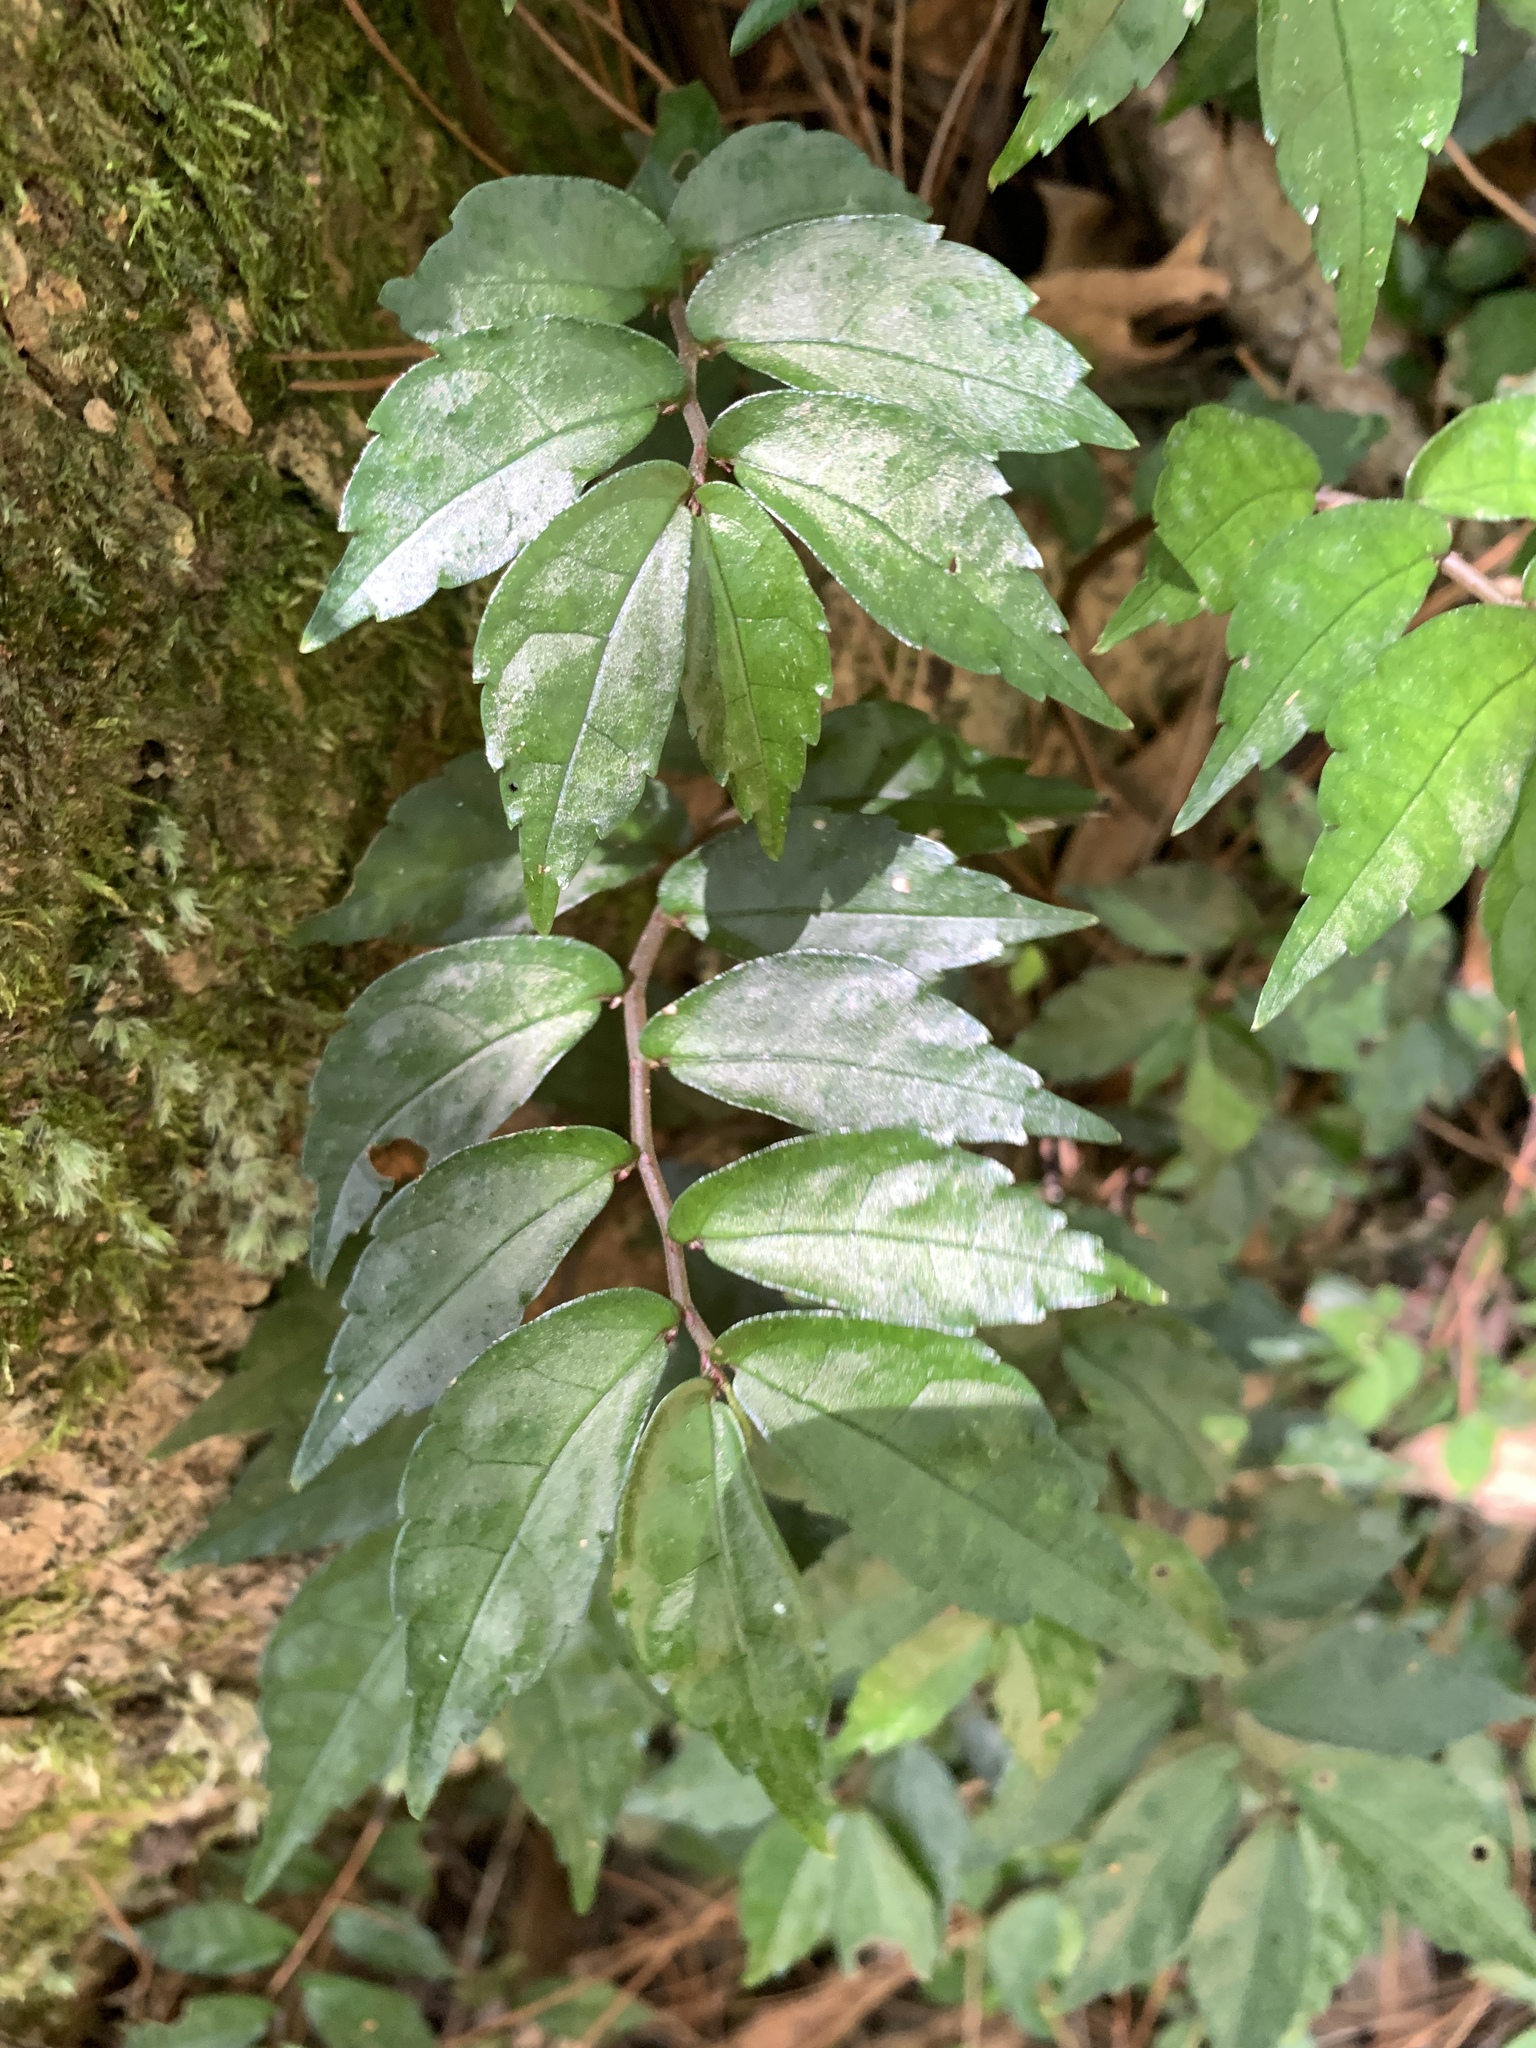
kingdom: Plantae
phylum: Tracheophyta
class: Magnoliopsida
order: Rosales
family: Urticaceae
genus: Elatostema
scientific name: Elatostema radicans
